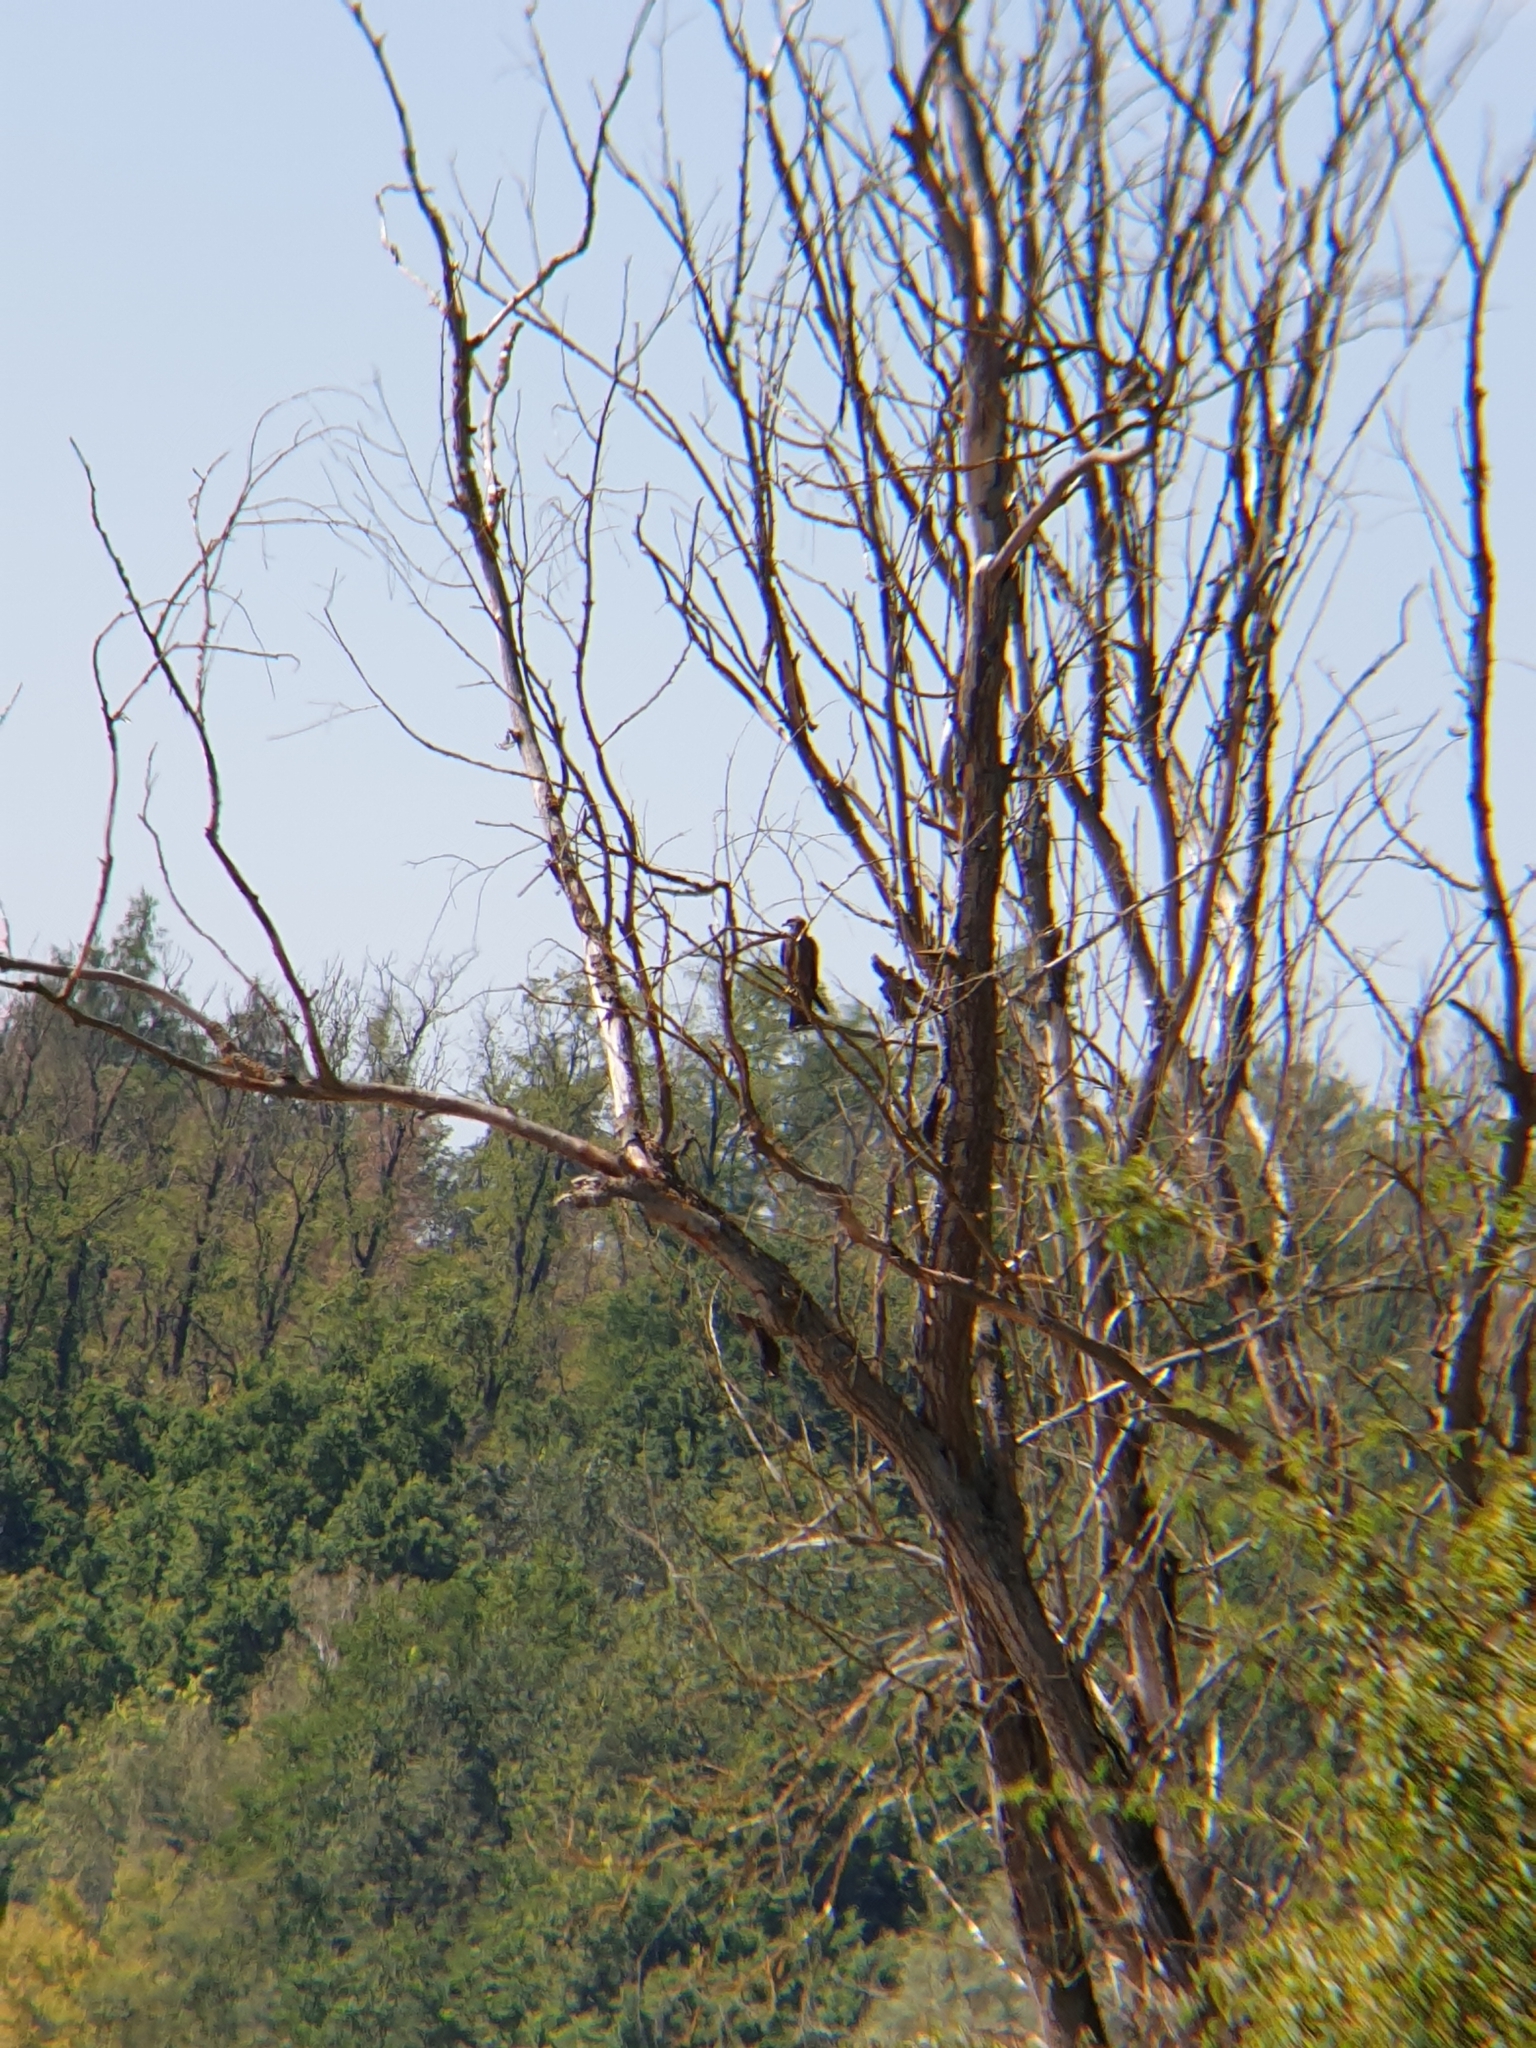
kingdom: Animalia
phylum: Chordata
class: Aves
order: Accipitriformes
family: Accipitridae
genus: Milvus
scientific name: Milvus migrans
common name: Black kite
